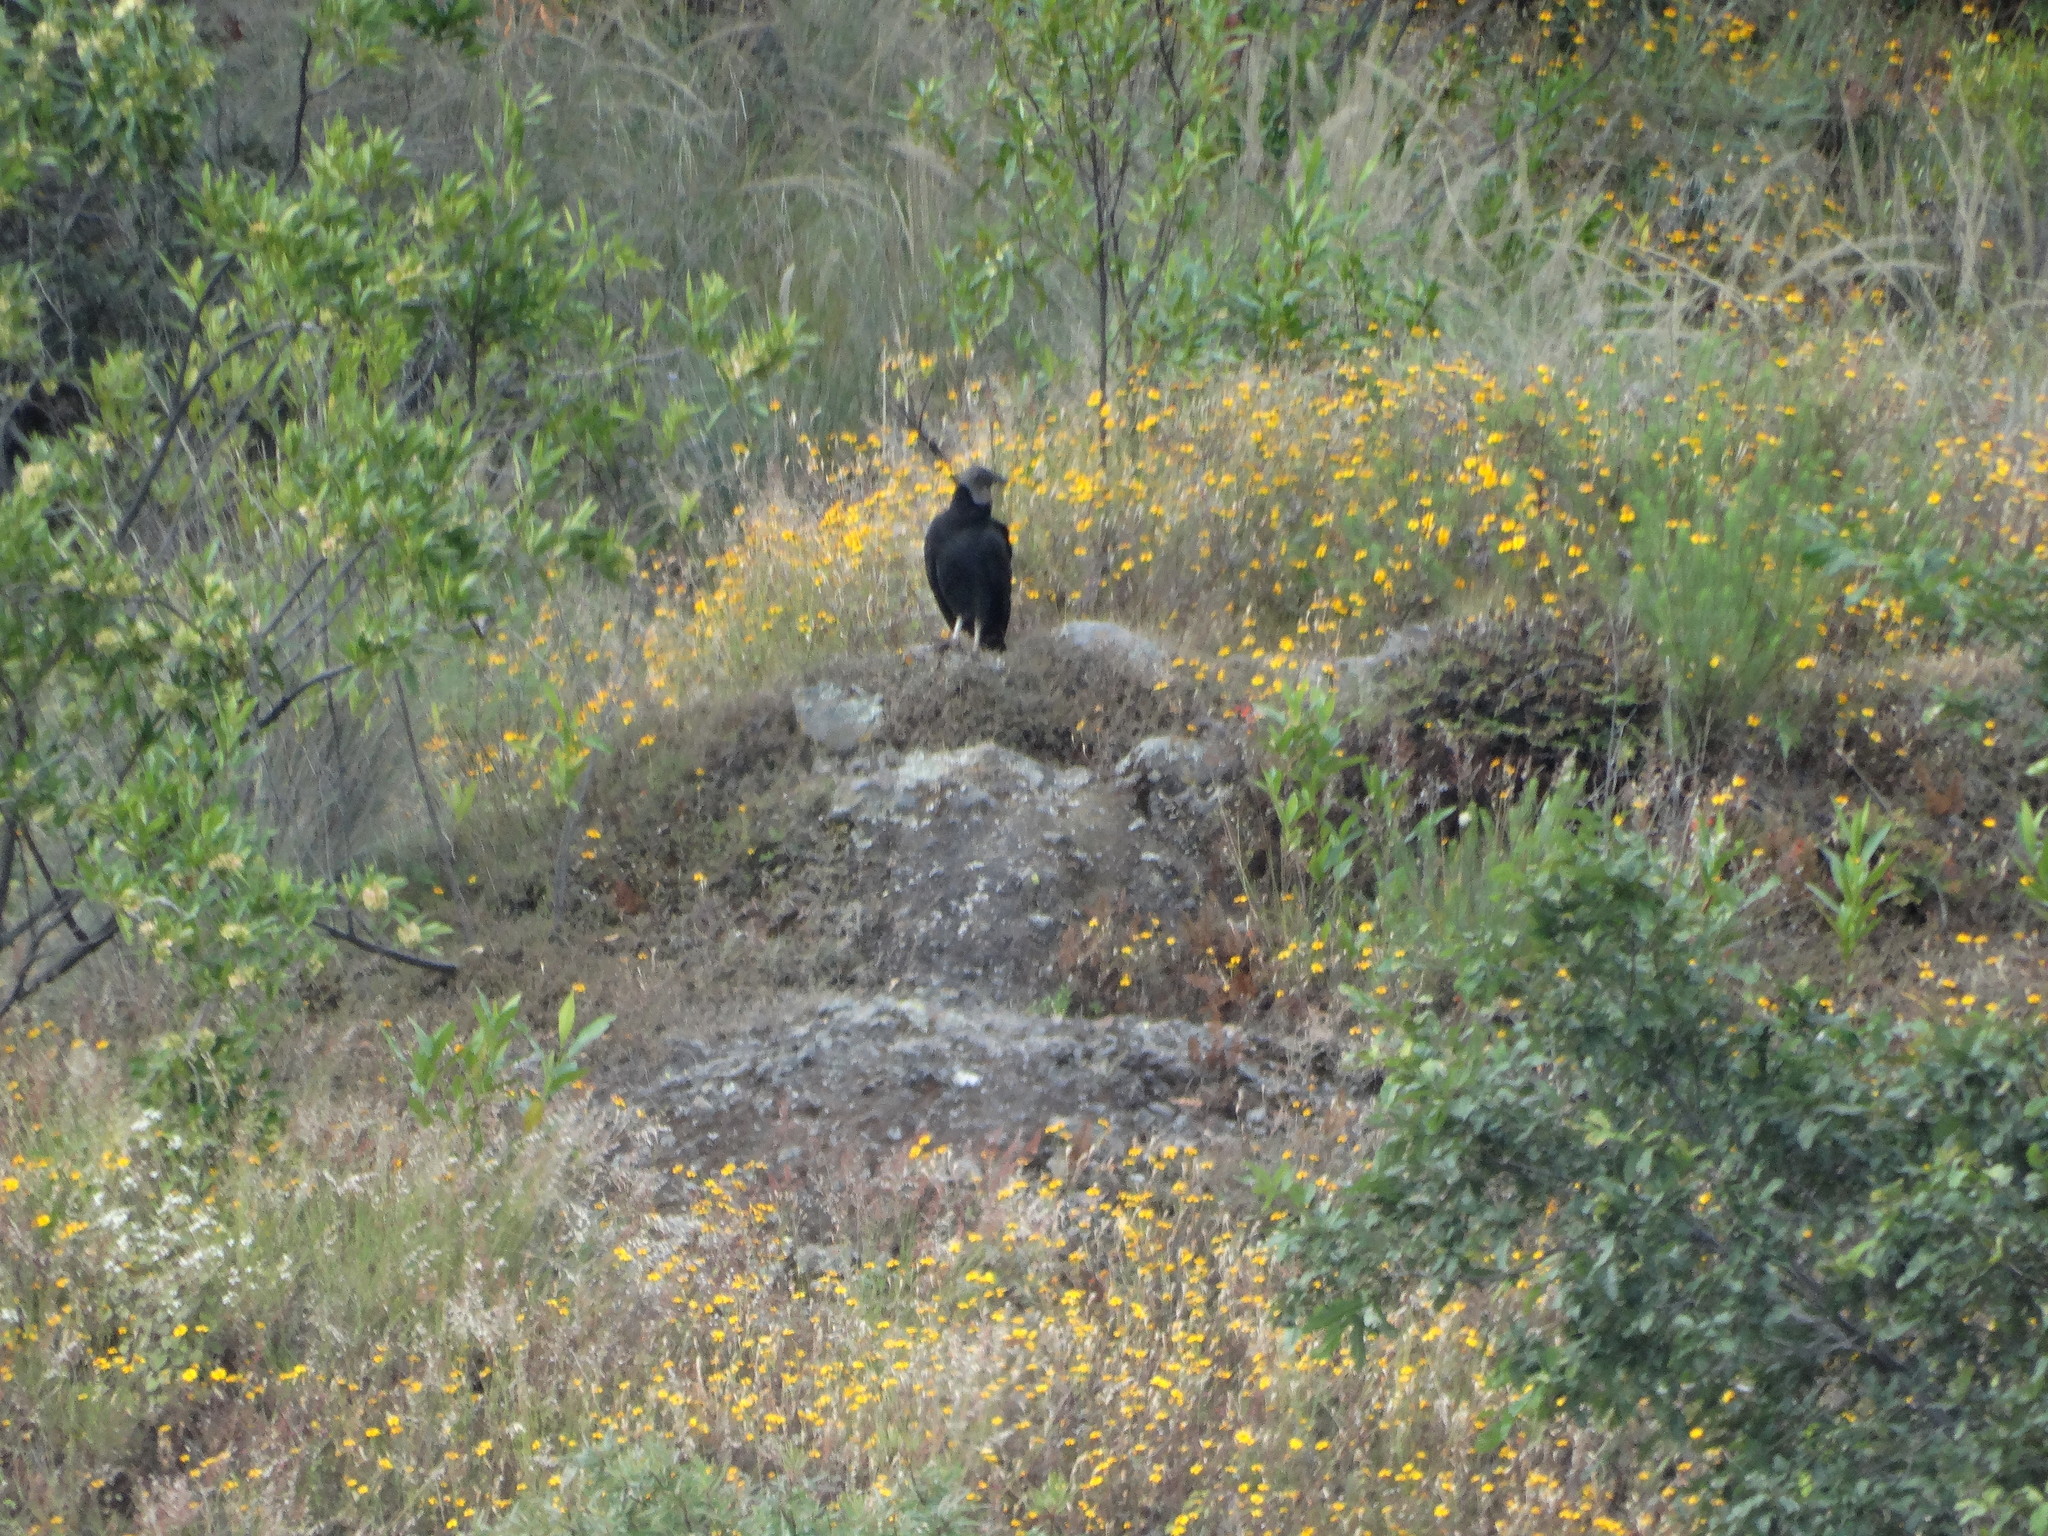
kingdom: Animalia
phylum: Chordata
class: Aves
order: Accipitriformes
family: Cathartidae
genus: Coragyps
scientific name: Coragyps atratus
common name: Black vulture
